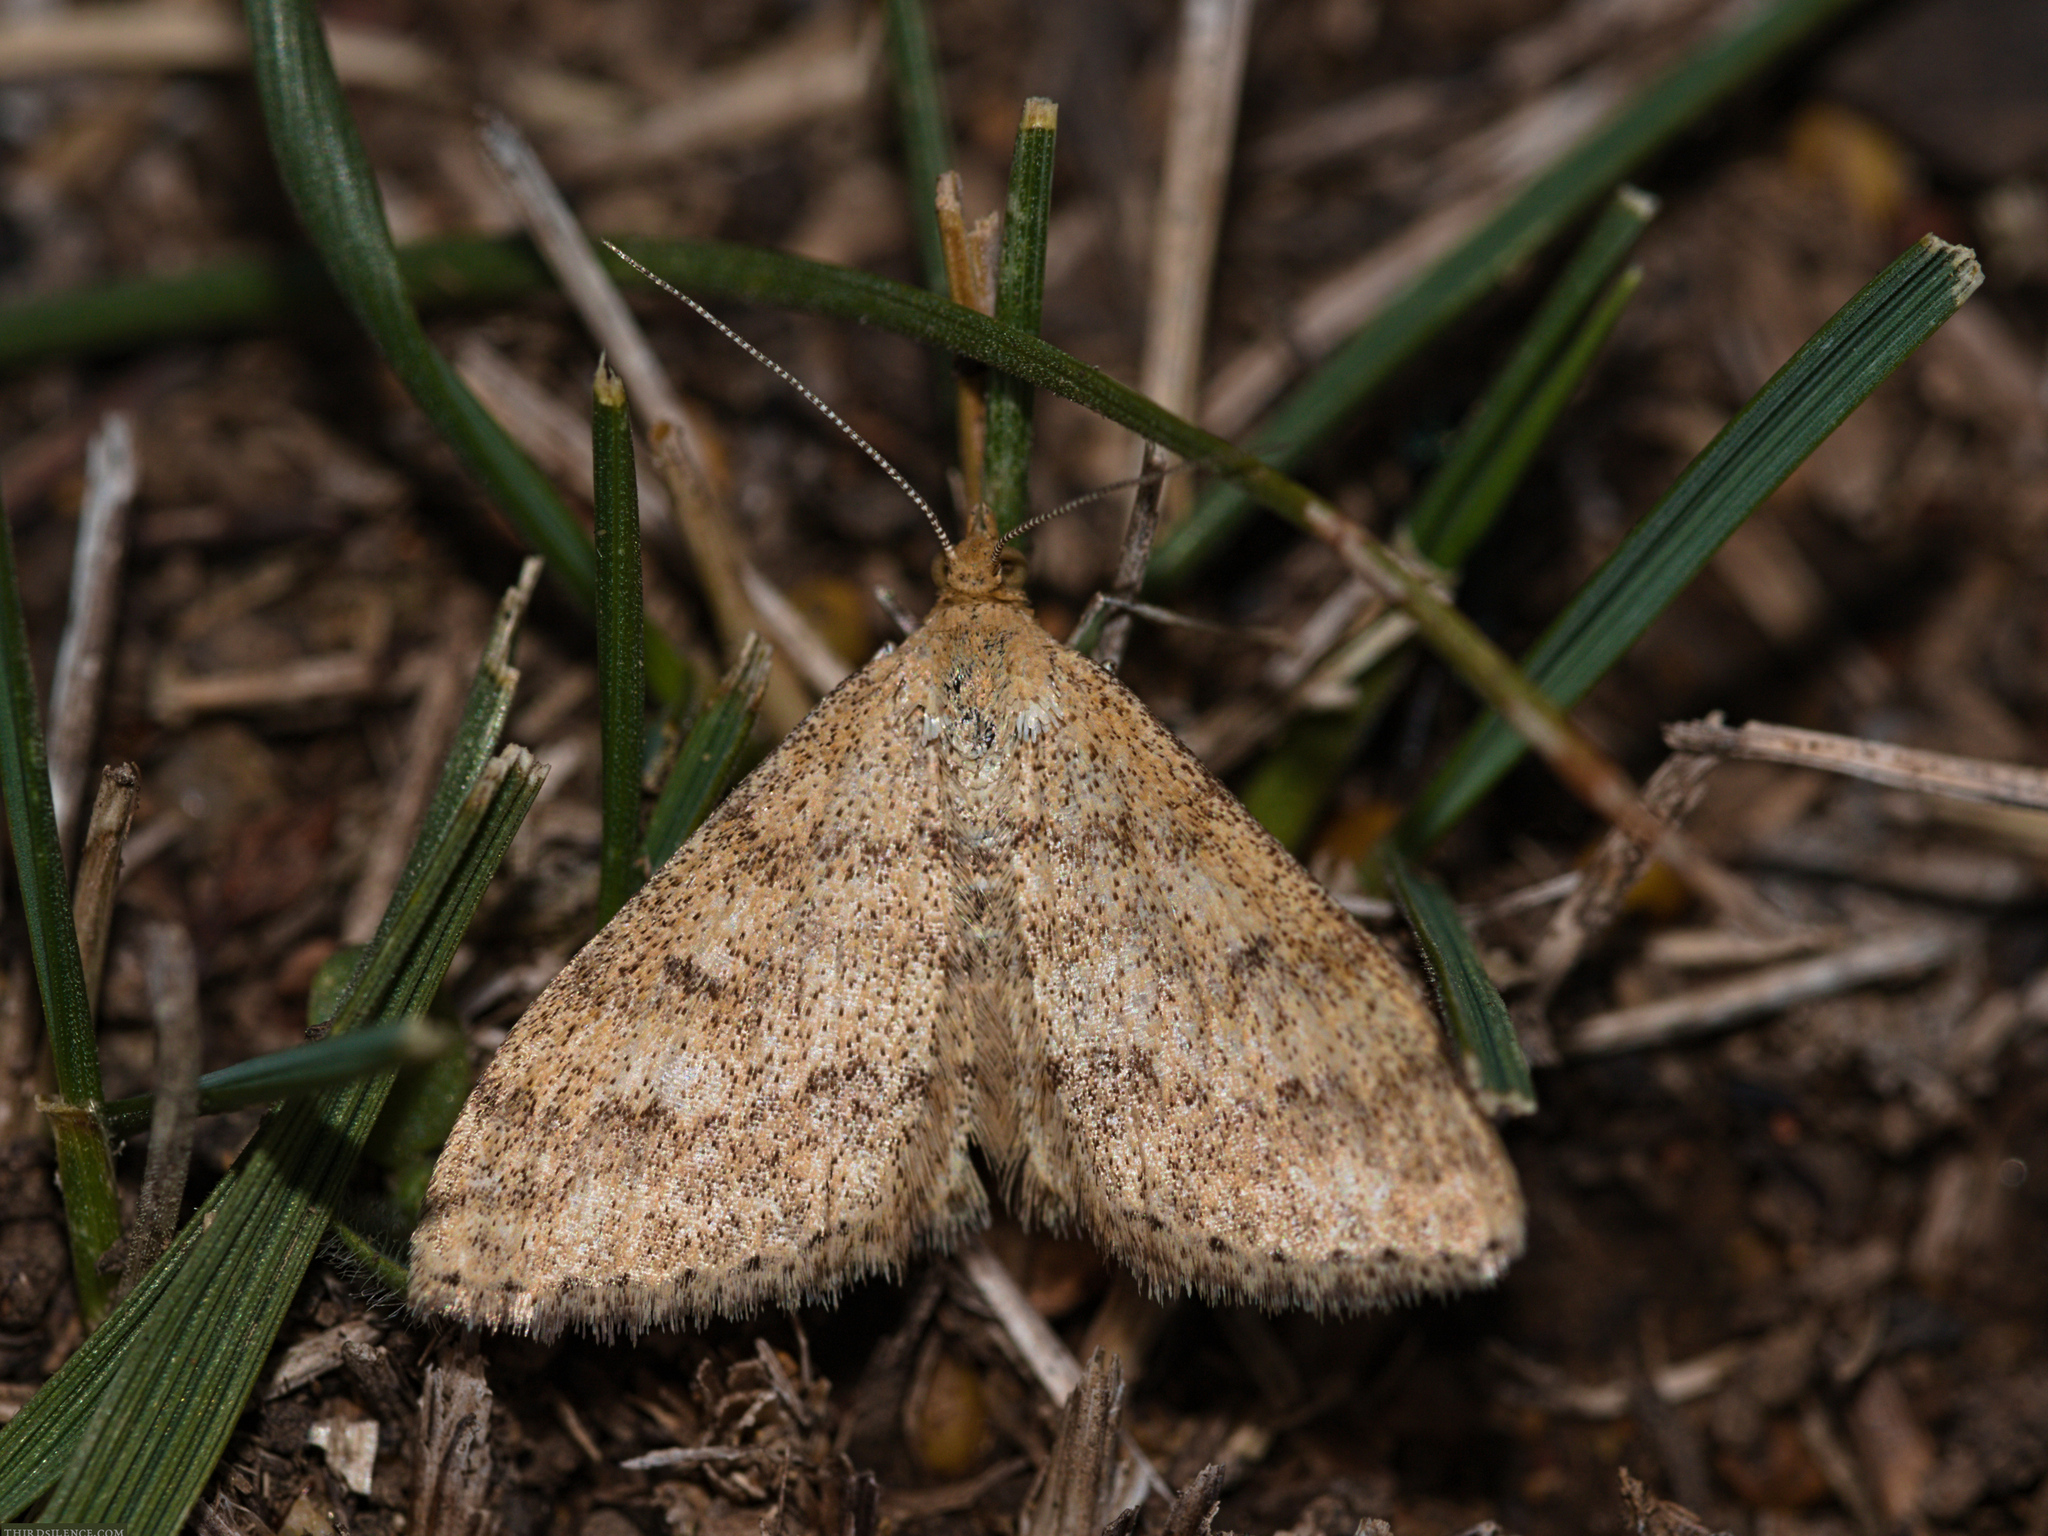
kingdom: Animalia
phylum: Arthropoda
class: Insecta
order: Lepidoptera
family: Geometridae
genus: Scopula
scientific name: Scopula rubraria
